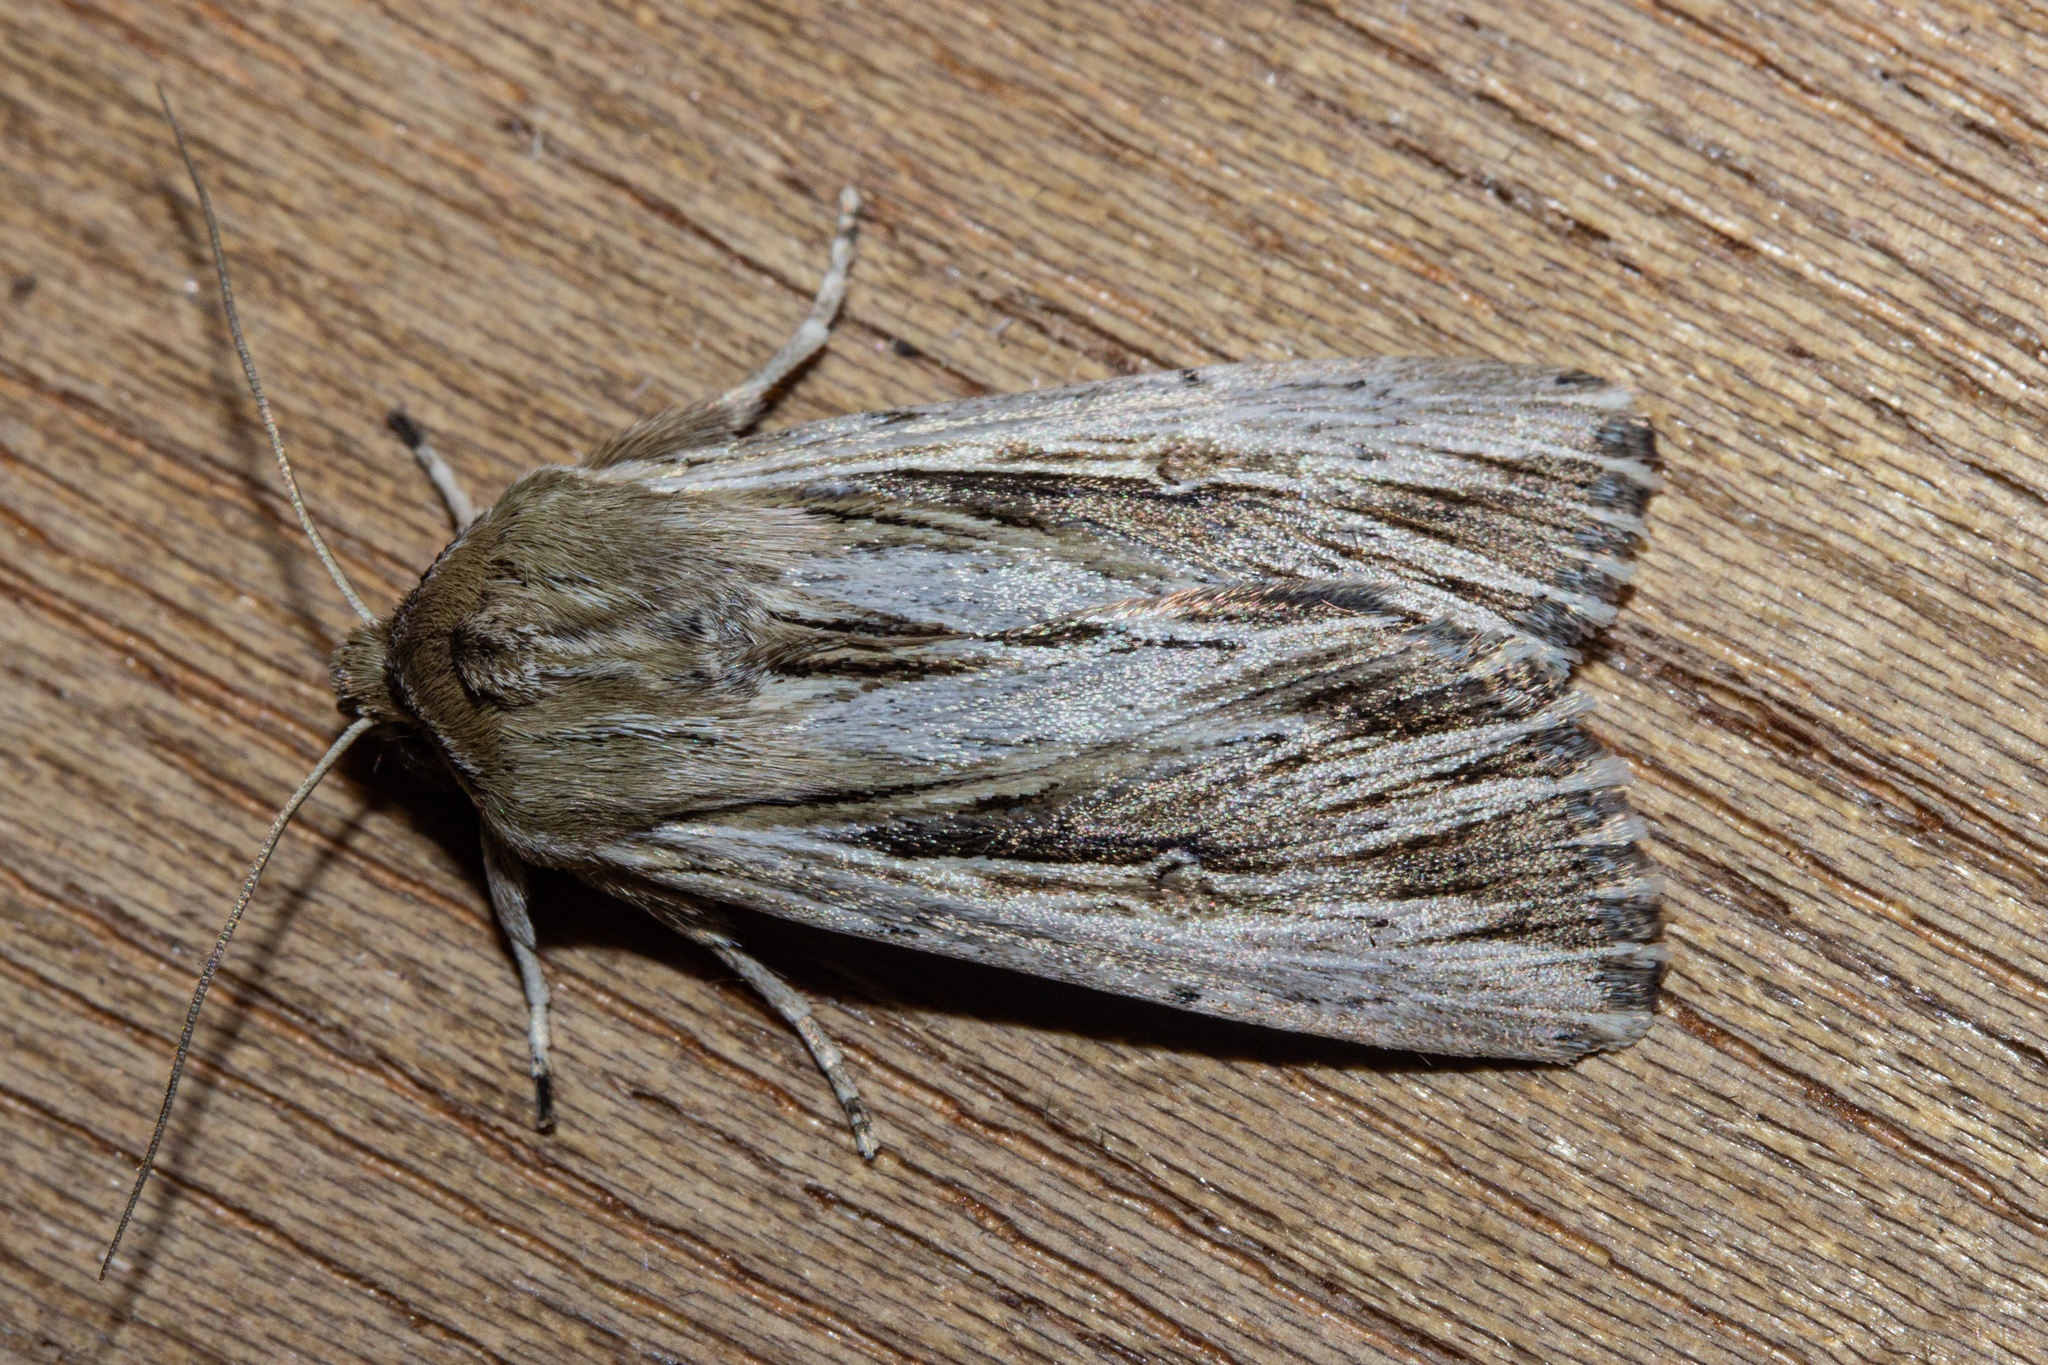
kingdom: Animalia
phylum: Arthropoda
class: Insecta
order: Lepidoptera
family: Noctuidae
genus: Persectania
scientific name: Persectania aversa
